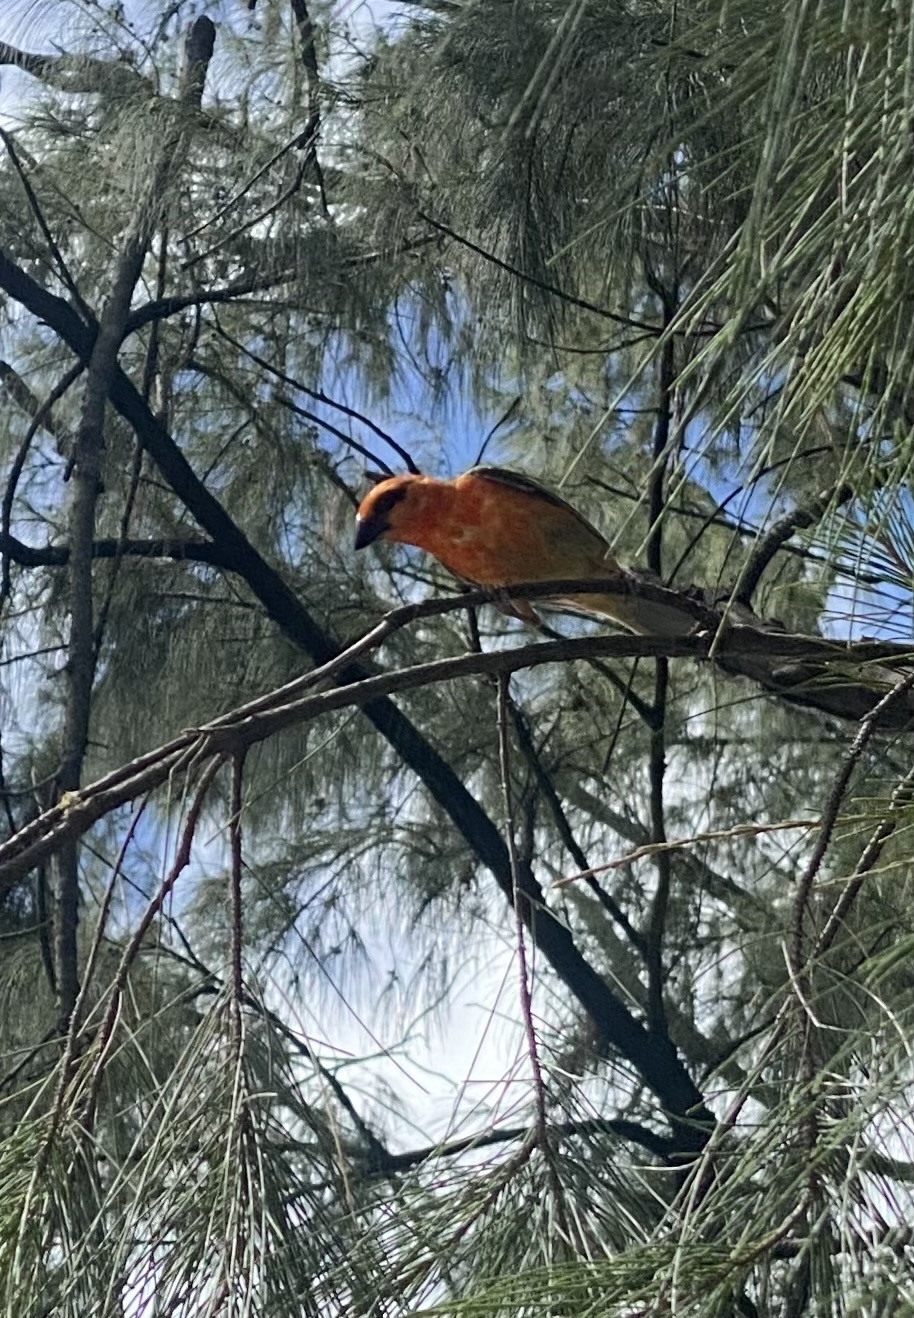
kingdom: Animalia
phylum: Chordata
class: Aves
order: Passeriformes
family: Ploceidae
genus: Foudia
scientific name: Foudia madagascariensis
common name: Red fody
